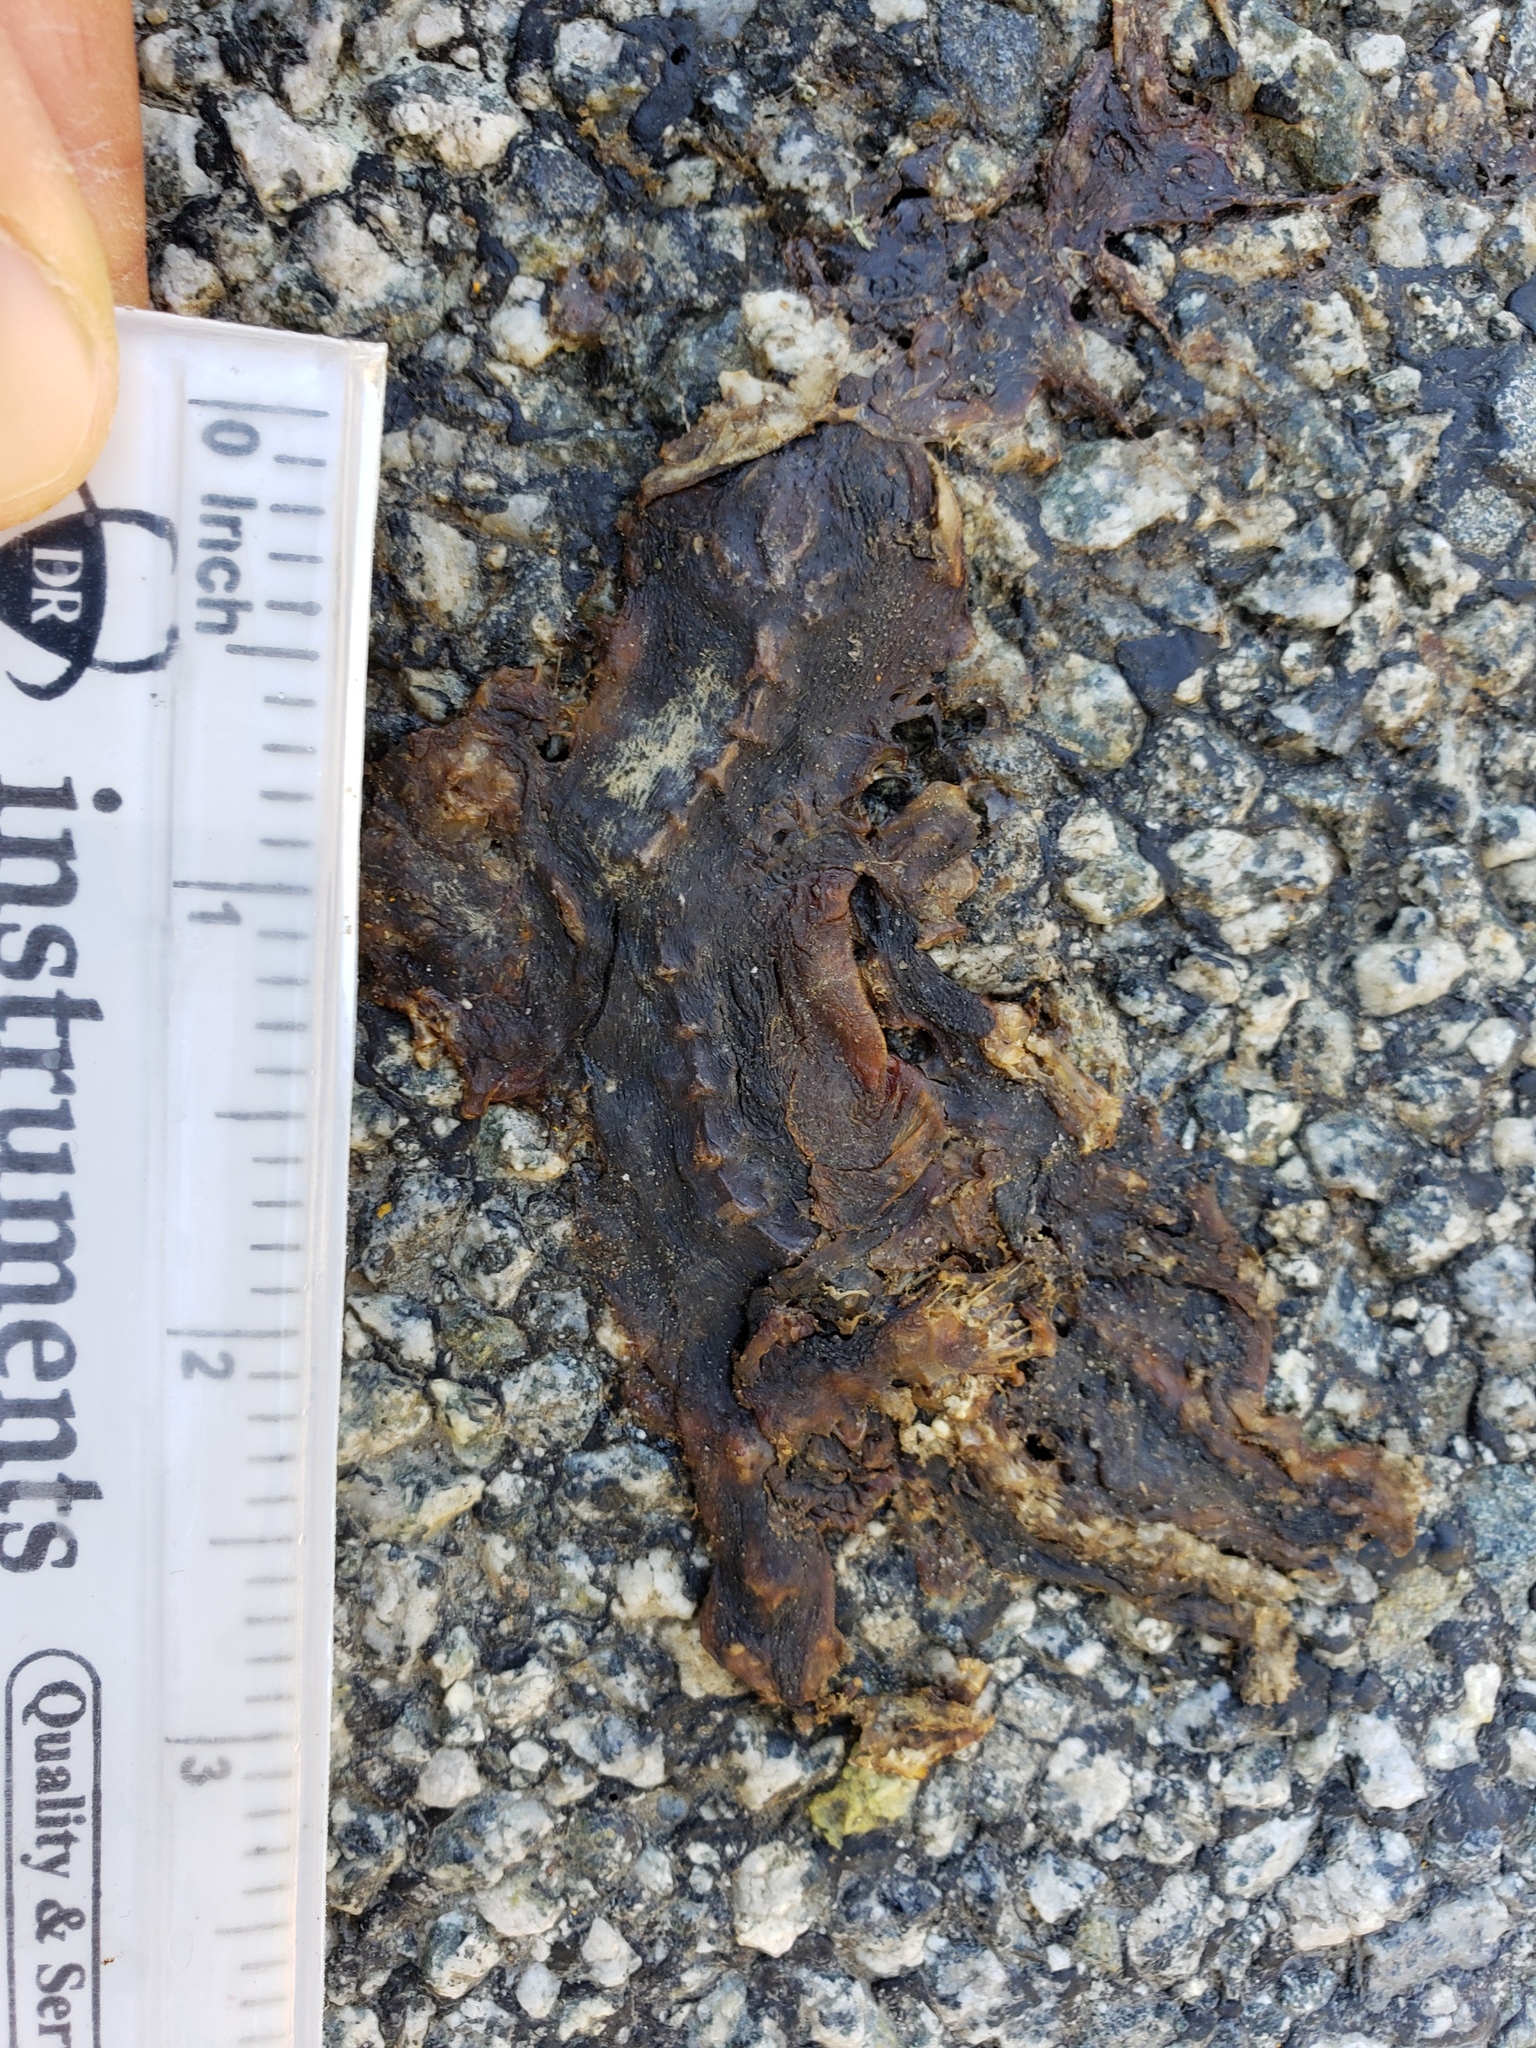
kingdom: Animalia
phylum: Chordata
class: Amphibia
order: Caudata
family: Salamandridae
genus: Taricha
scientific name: Taricha
